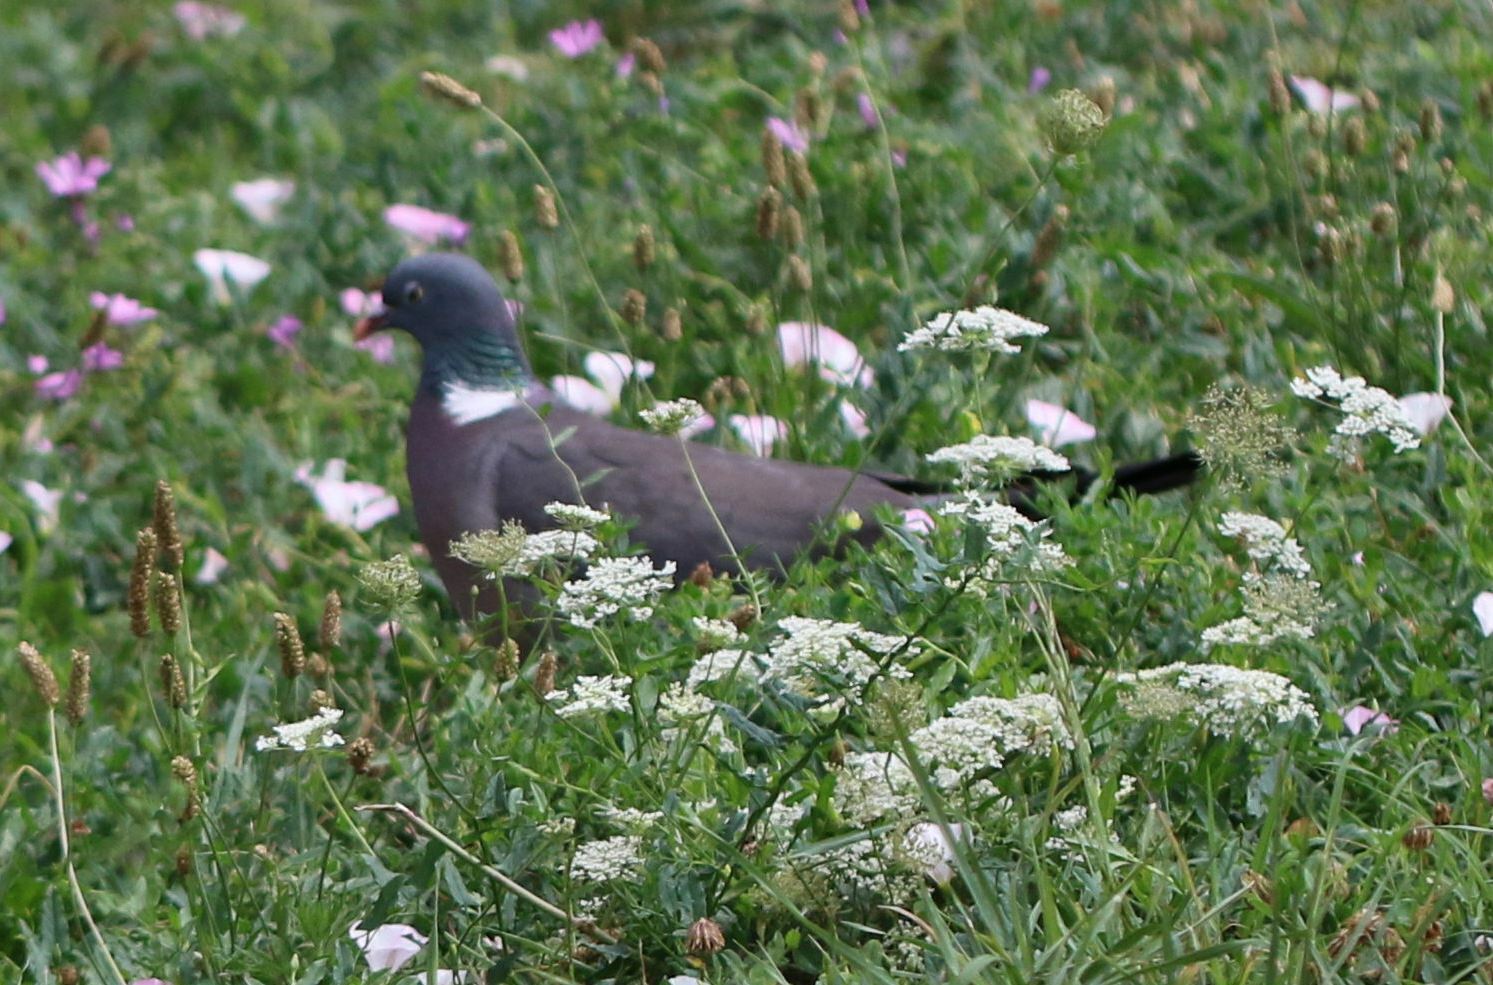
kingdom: Animalia
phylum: Chordata
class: Aves
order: Columbiformes
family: Columbidae
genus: Columba
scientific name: Columba palumbus
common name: Common wood pigeon
